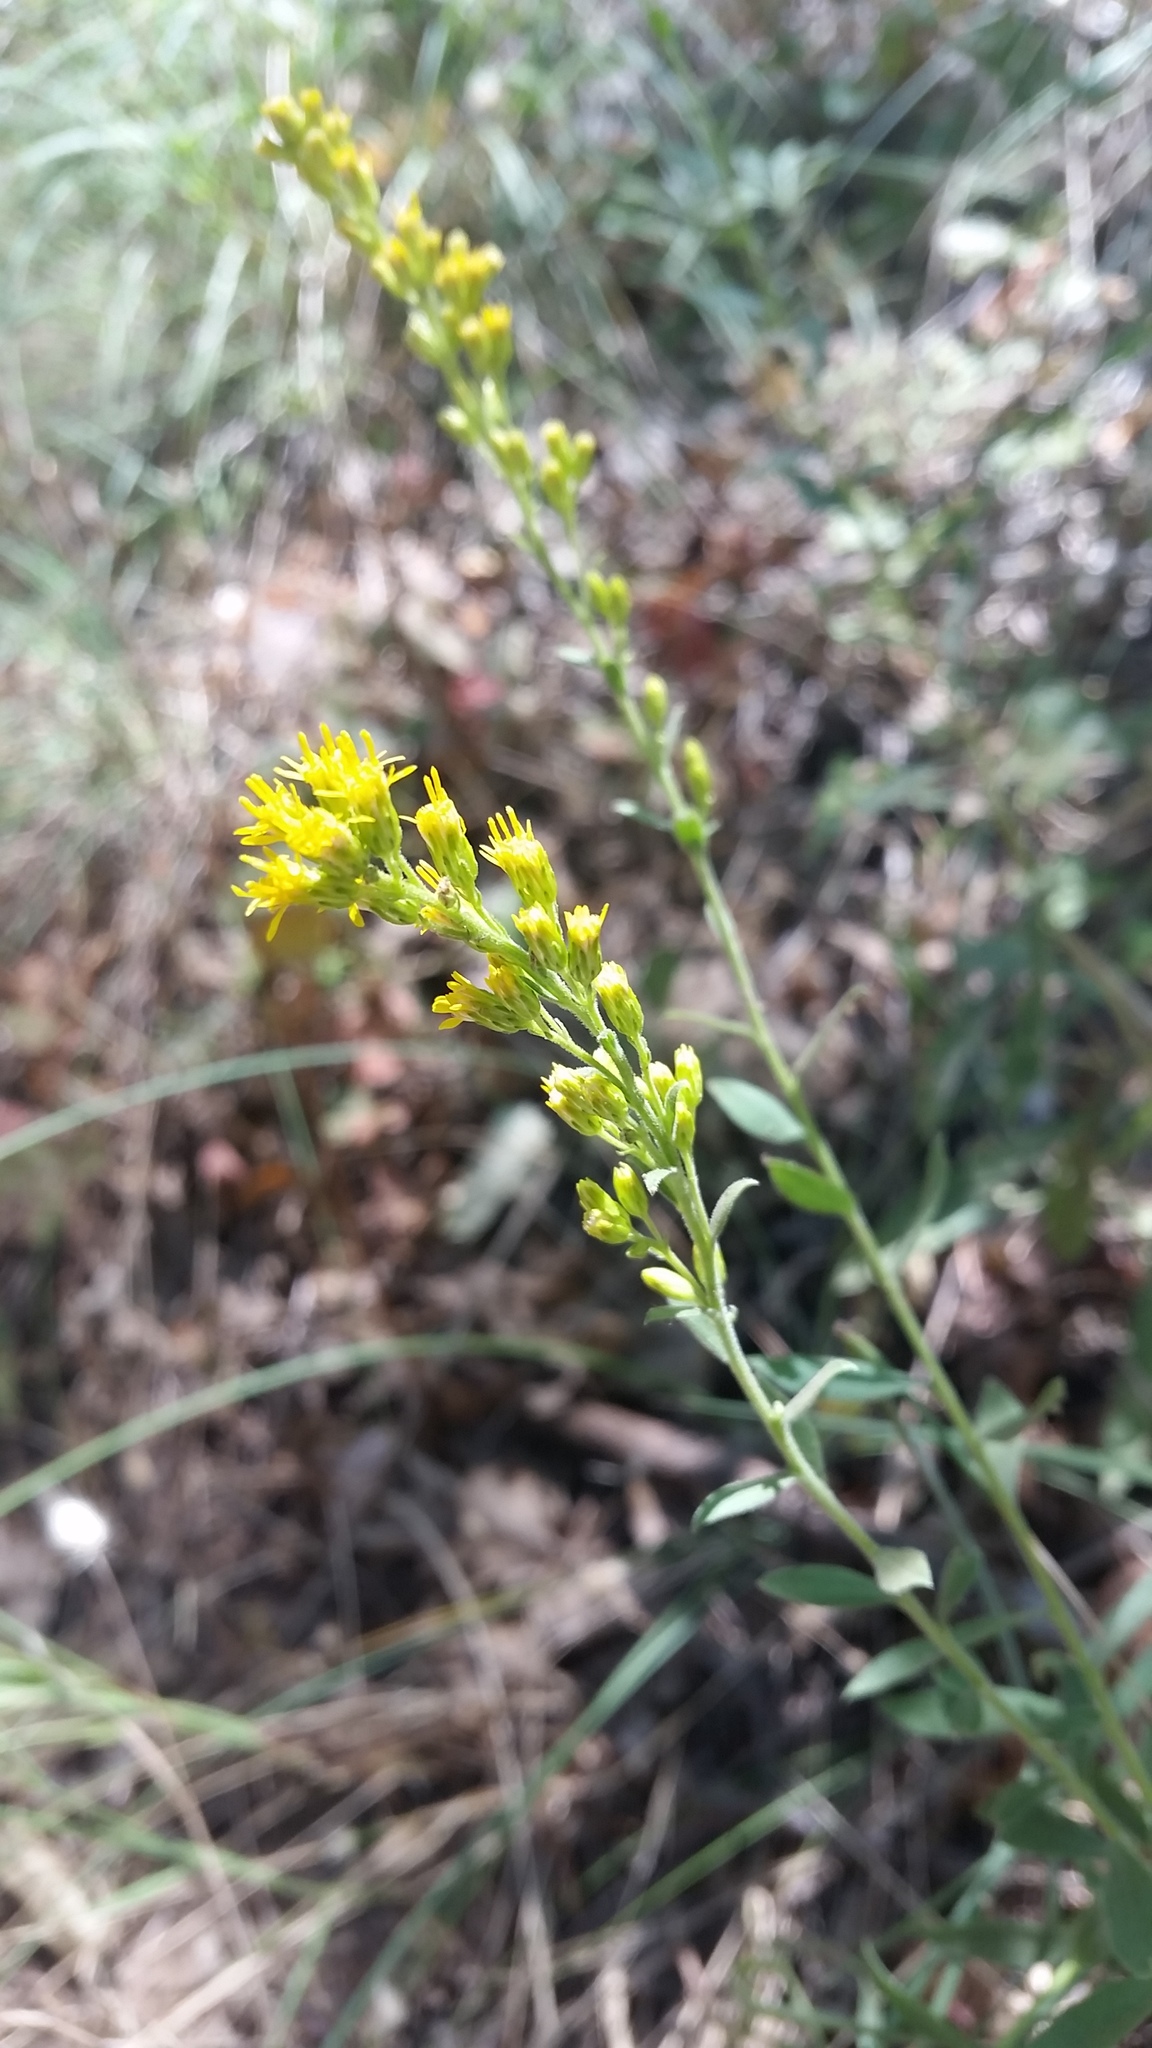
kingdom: Plantae
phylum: Tracheophyta
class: Magnoliopsida
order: Asterales
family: Asteraceae
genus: Solidago
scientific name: Solidago velutina
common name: Three-nerve goldenrod
